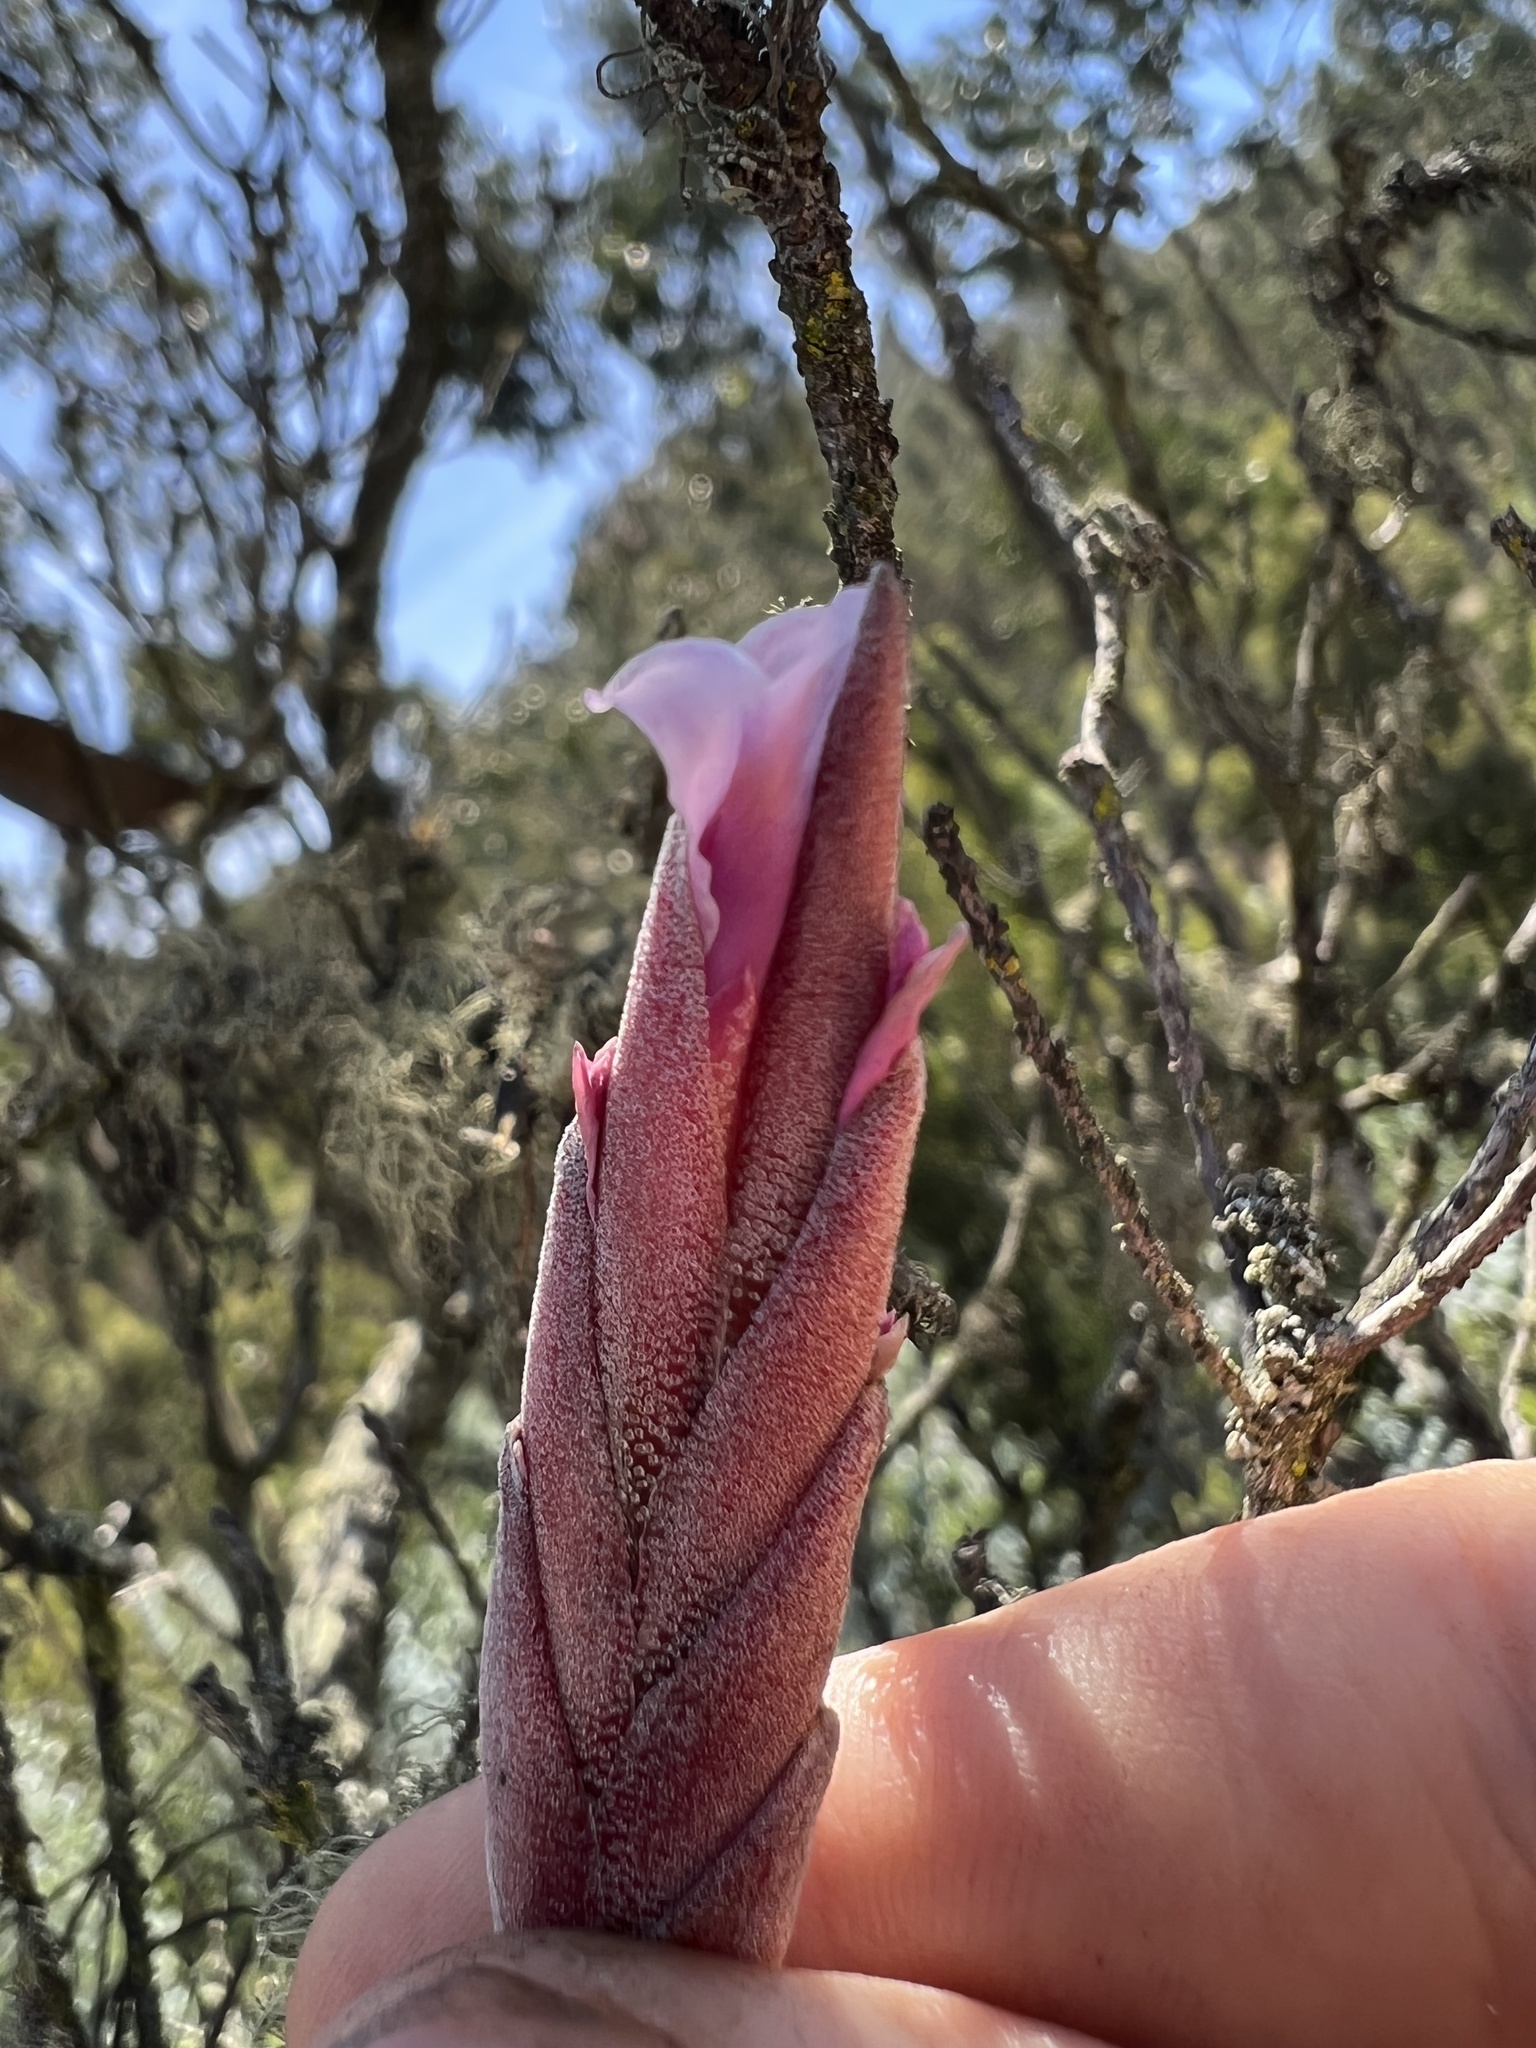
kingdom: Plantae
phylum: Tracheophyta
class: Liliopsida
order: Poales
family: Bromeliaceae
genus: Tillandsia
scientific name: Tillandsia incarnata
